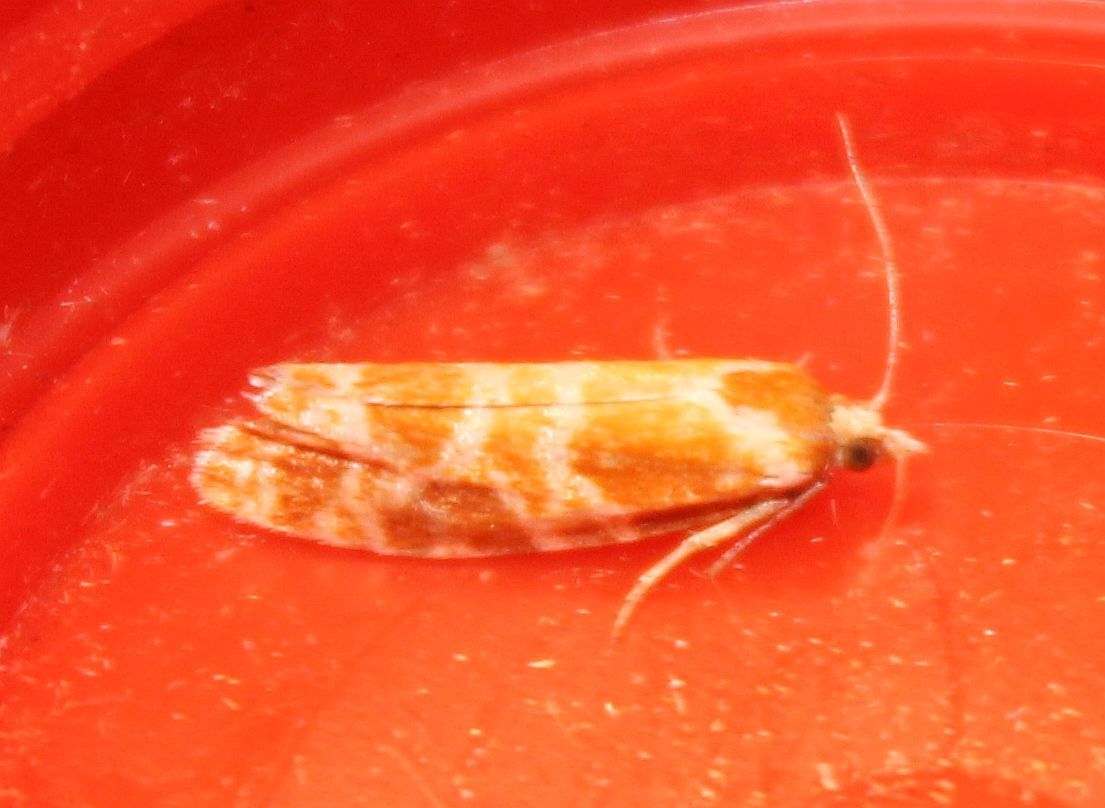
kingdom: Animalia
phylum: Arthropoda
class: Insecta
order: Lepidoptera
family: Tortricidae
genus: Rhyacionia
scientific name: Rhyacionia pinicolana
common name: Orange-spotted shoot
